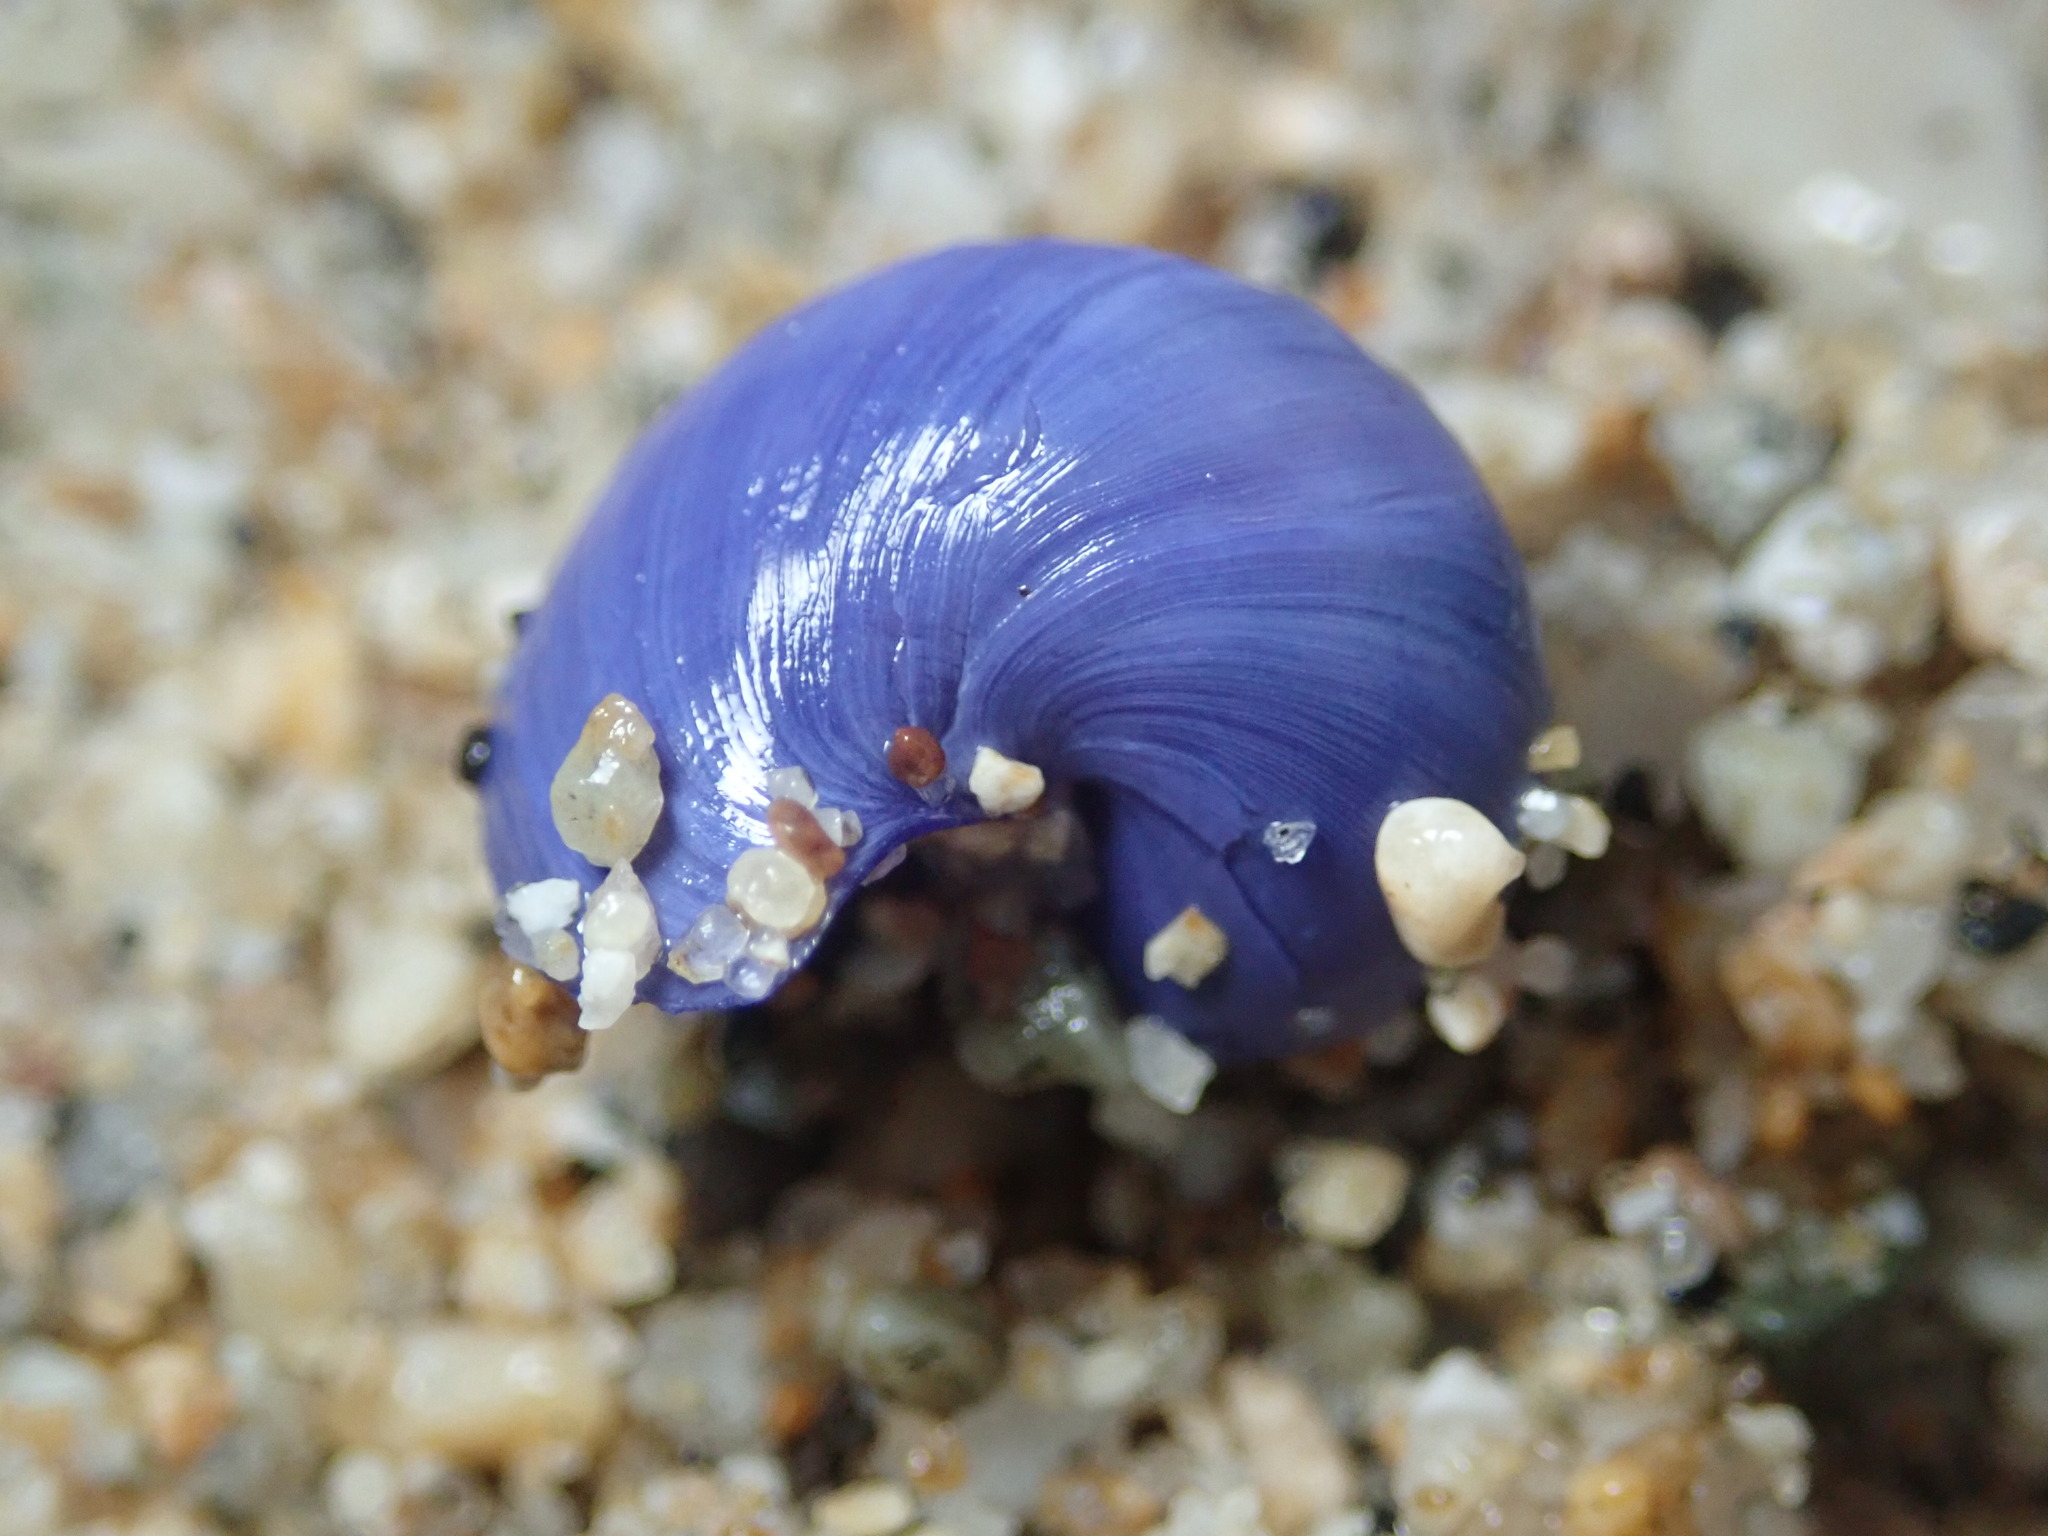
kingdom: Animalia
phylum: Mollusca
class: Gastropoda
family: Epitoniidae
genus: Janthina
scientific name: Janthina umbilicata
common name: Elongate janthina
